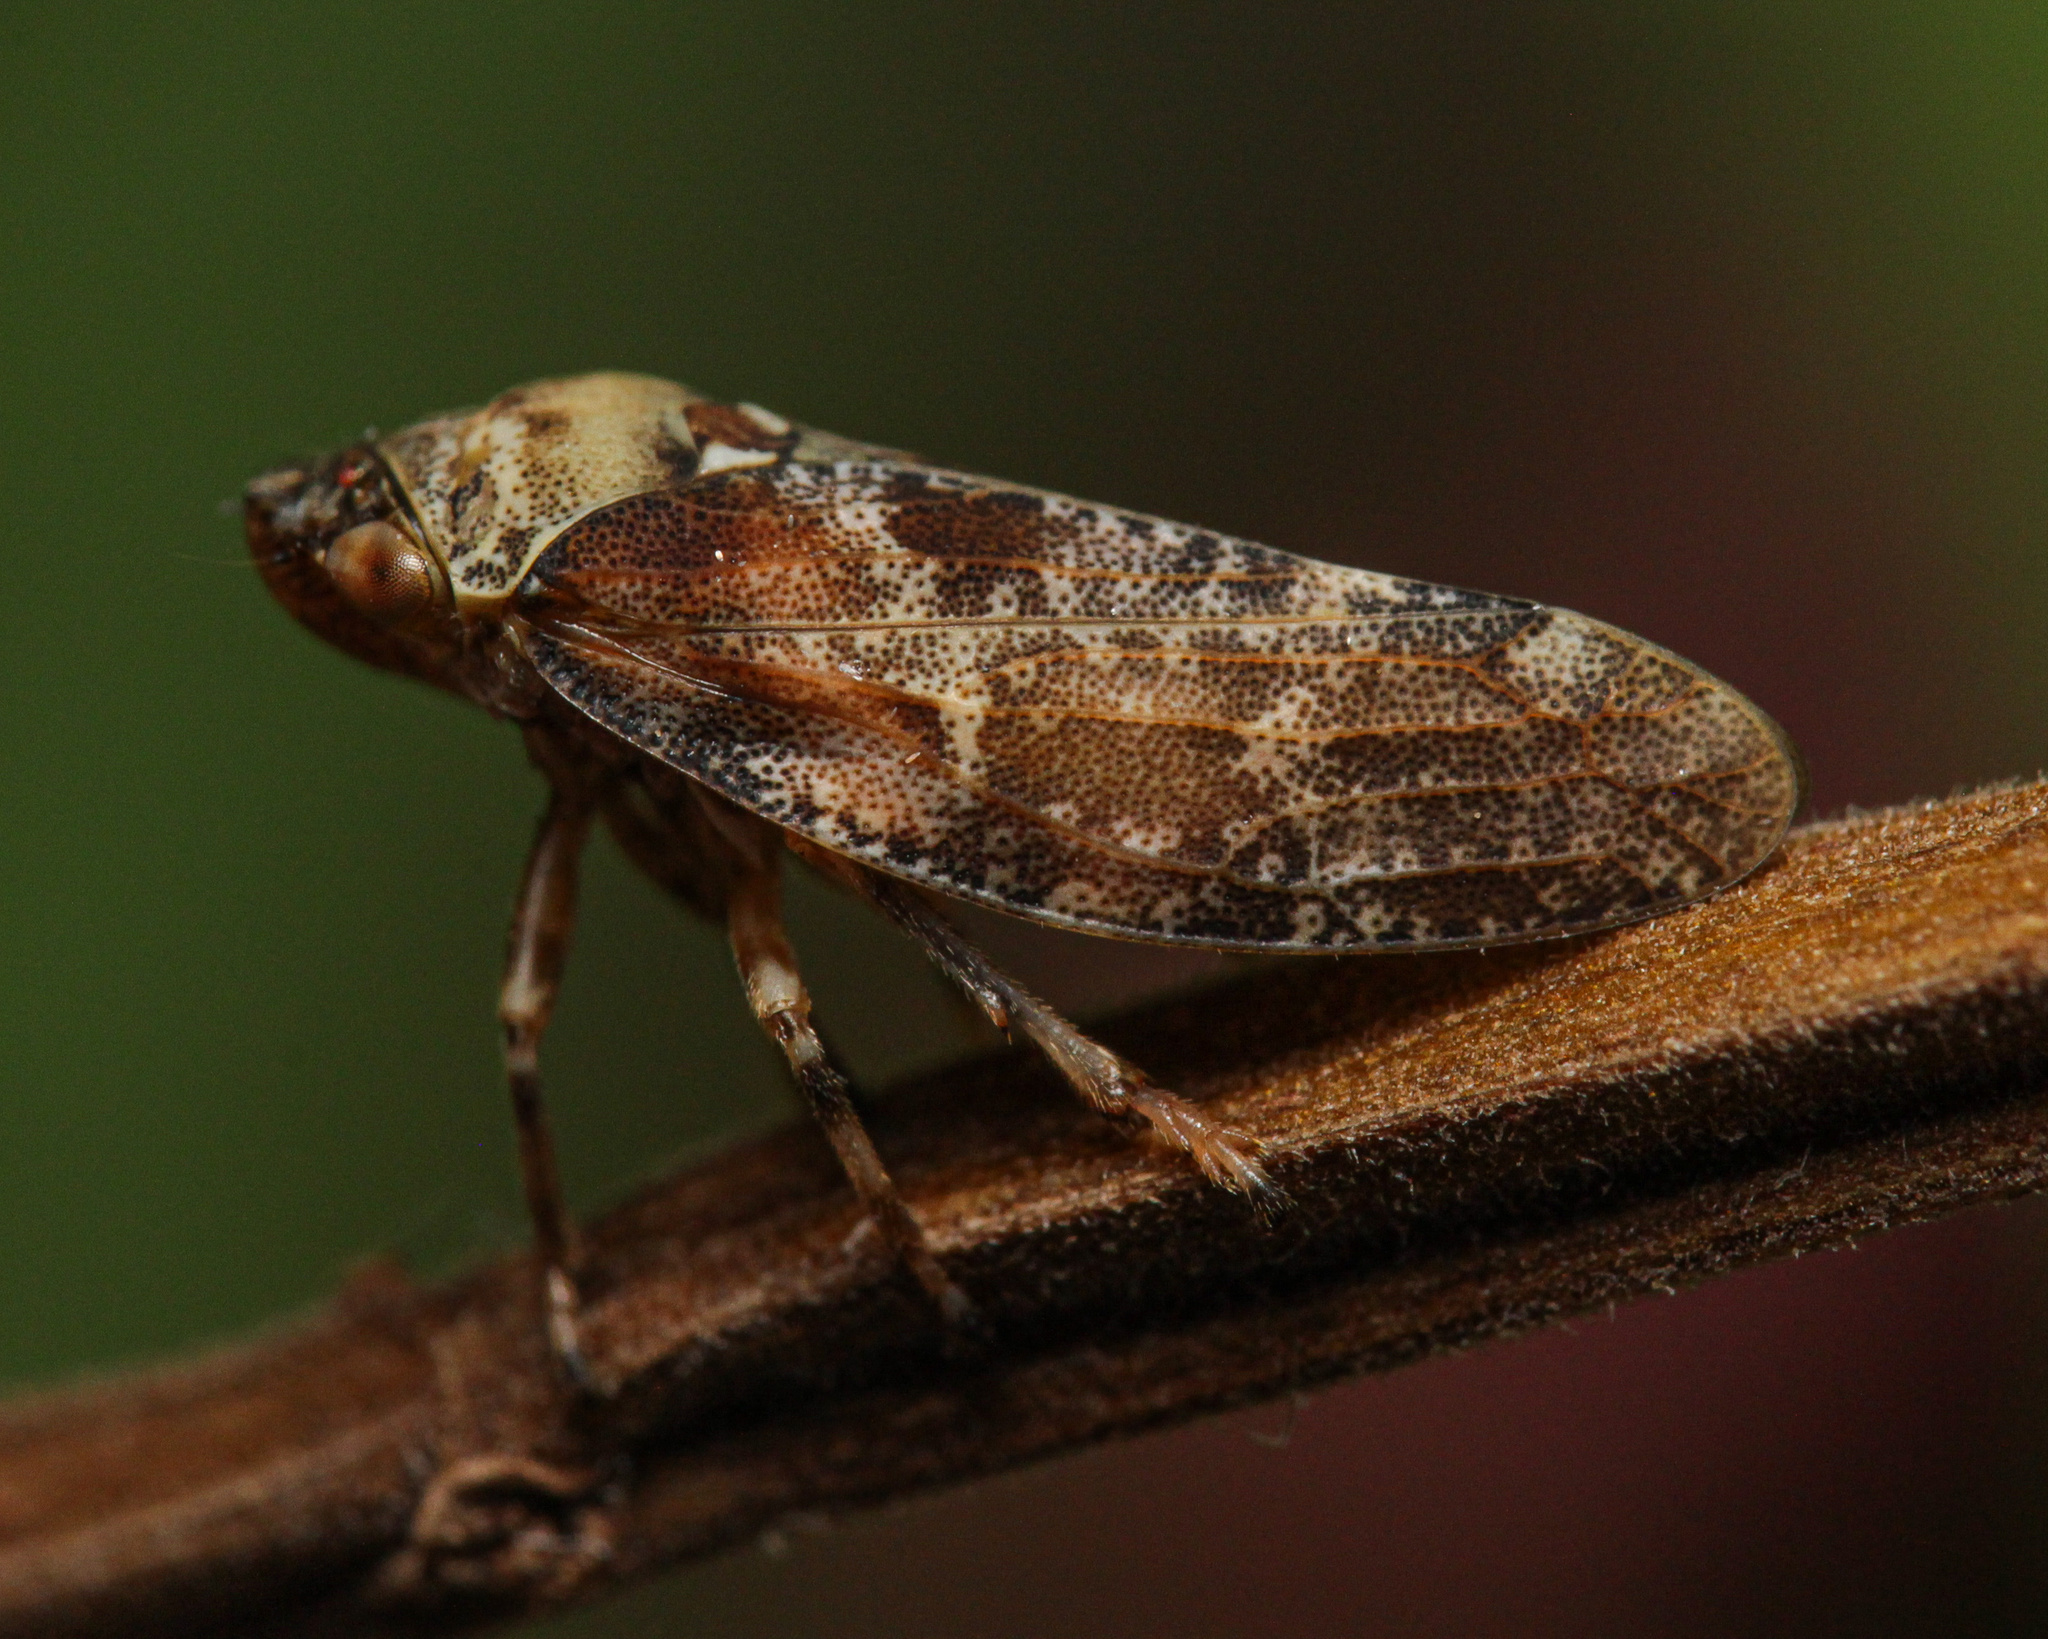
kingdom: Animalia
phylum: Arthropoda
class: Insecta
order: Hemiptera
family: Aphrophoridae
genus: Aphrophora
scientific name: Aphrophora corticea
